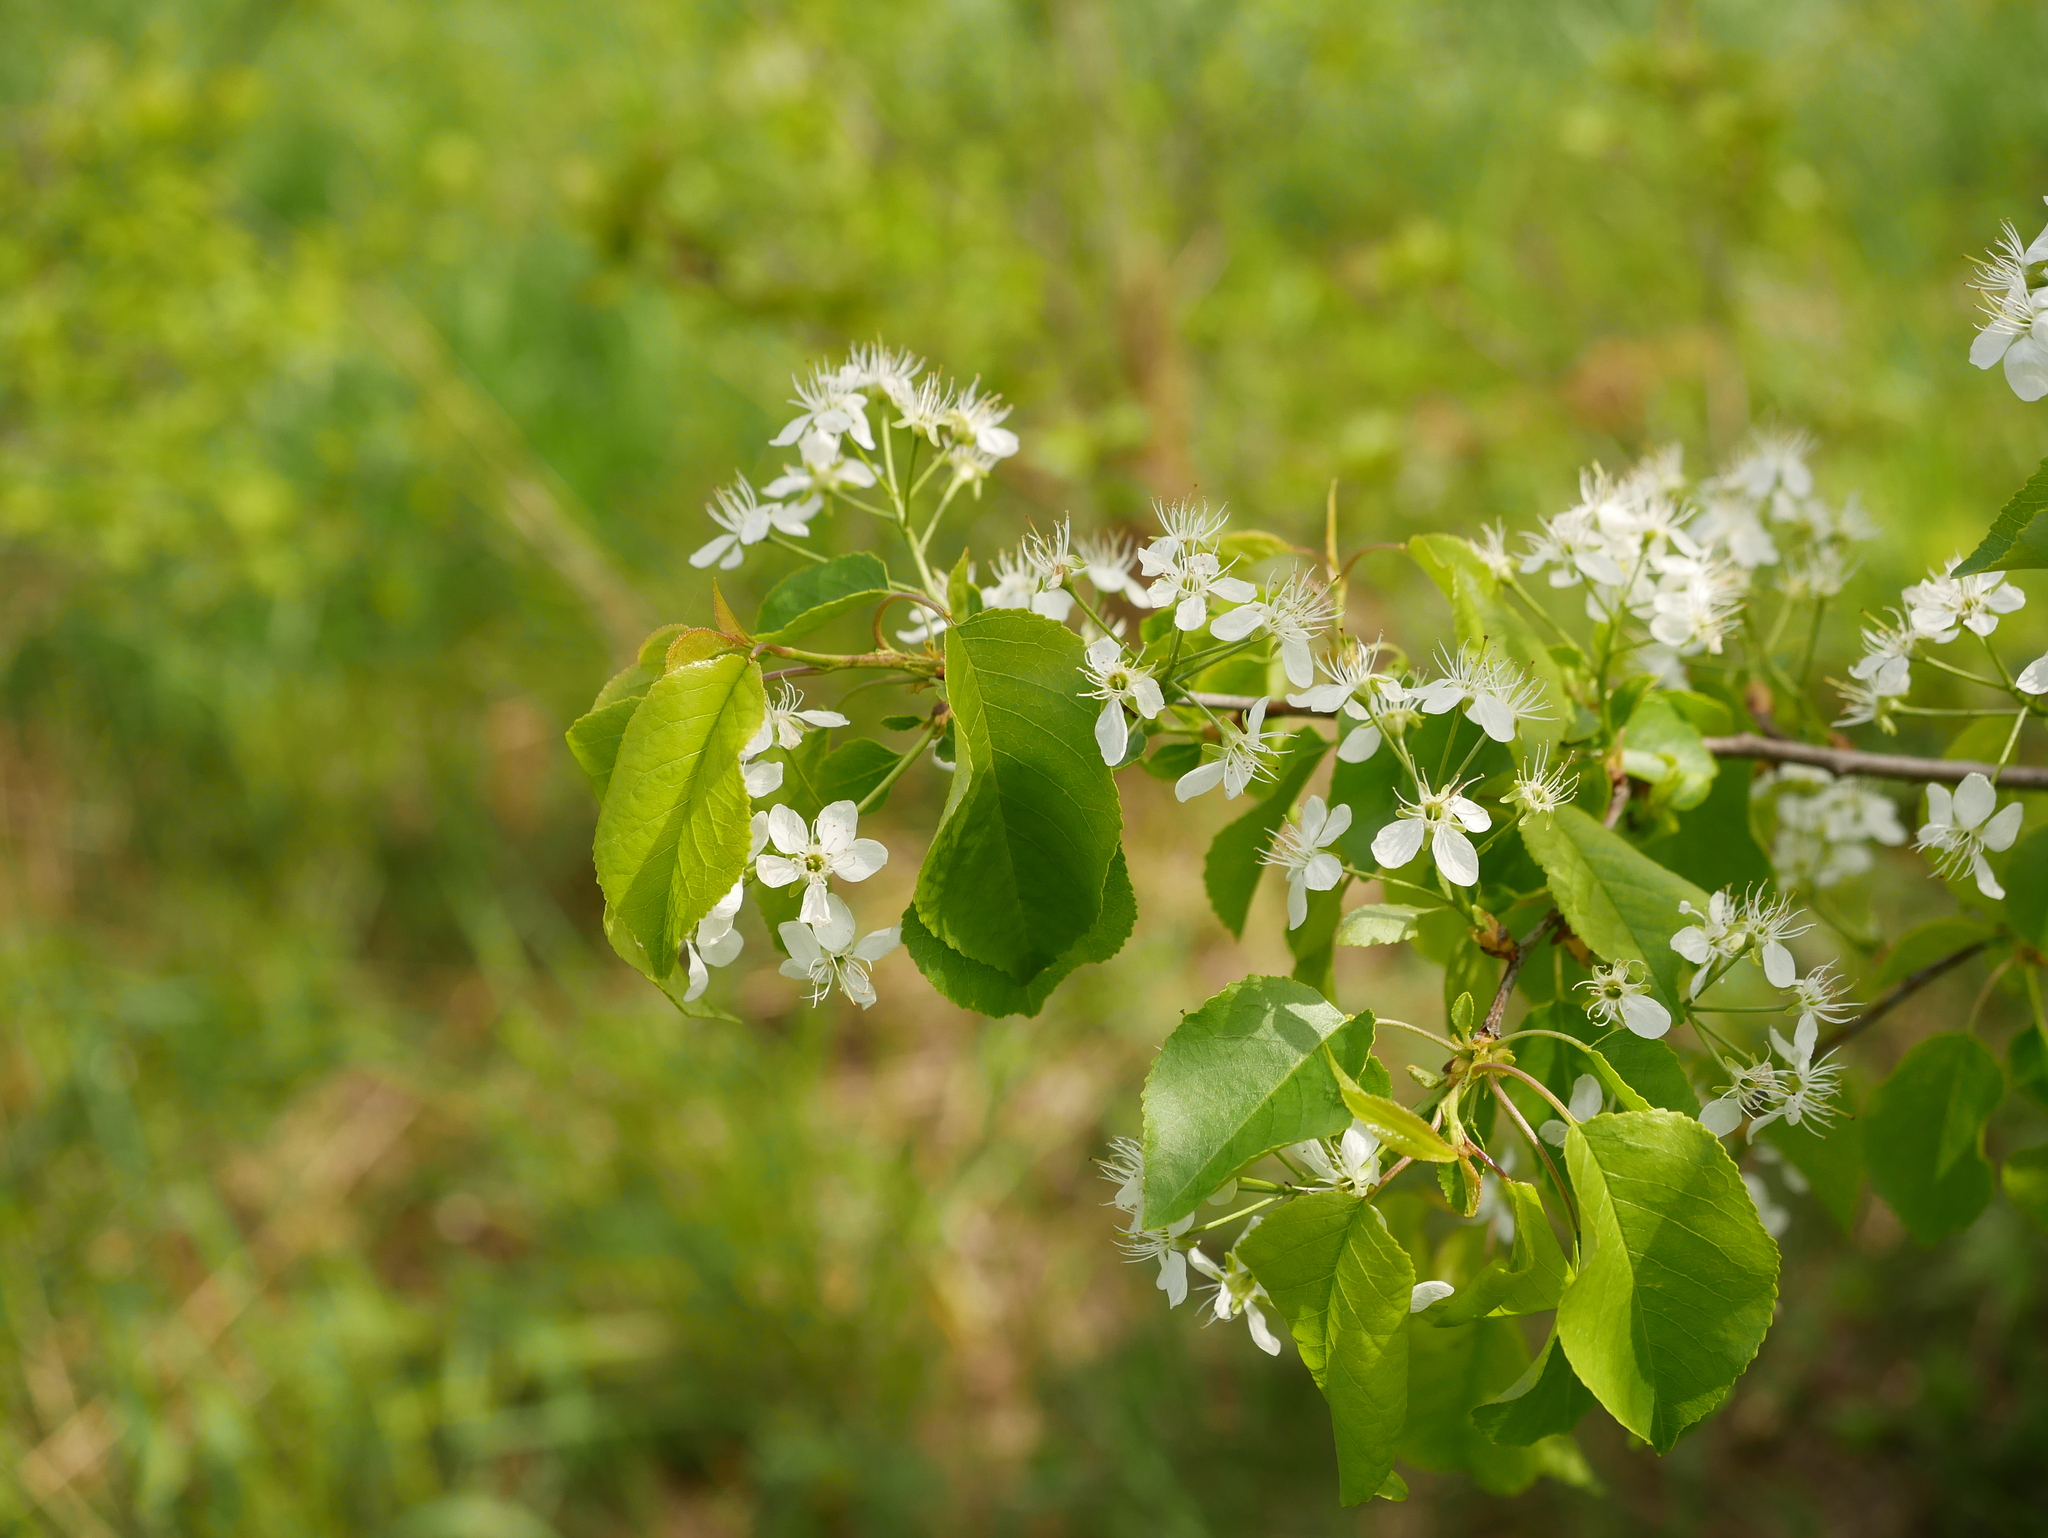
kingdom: Plantae
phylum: Tracheophyta
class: Magnoliopsida
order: Rosales
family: Rosaceae
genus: Prunus
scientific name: Prunus mahaleb
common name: Mahaleb cherry
